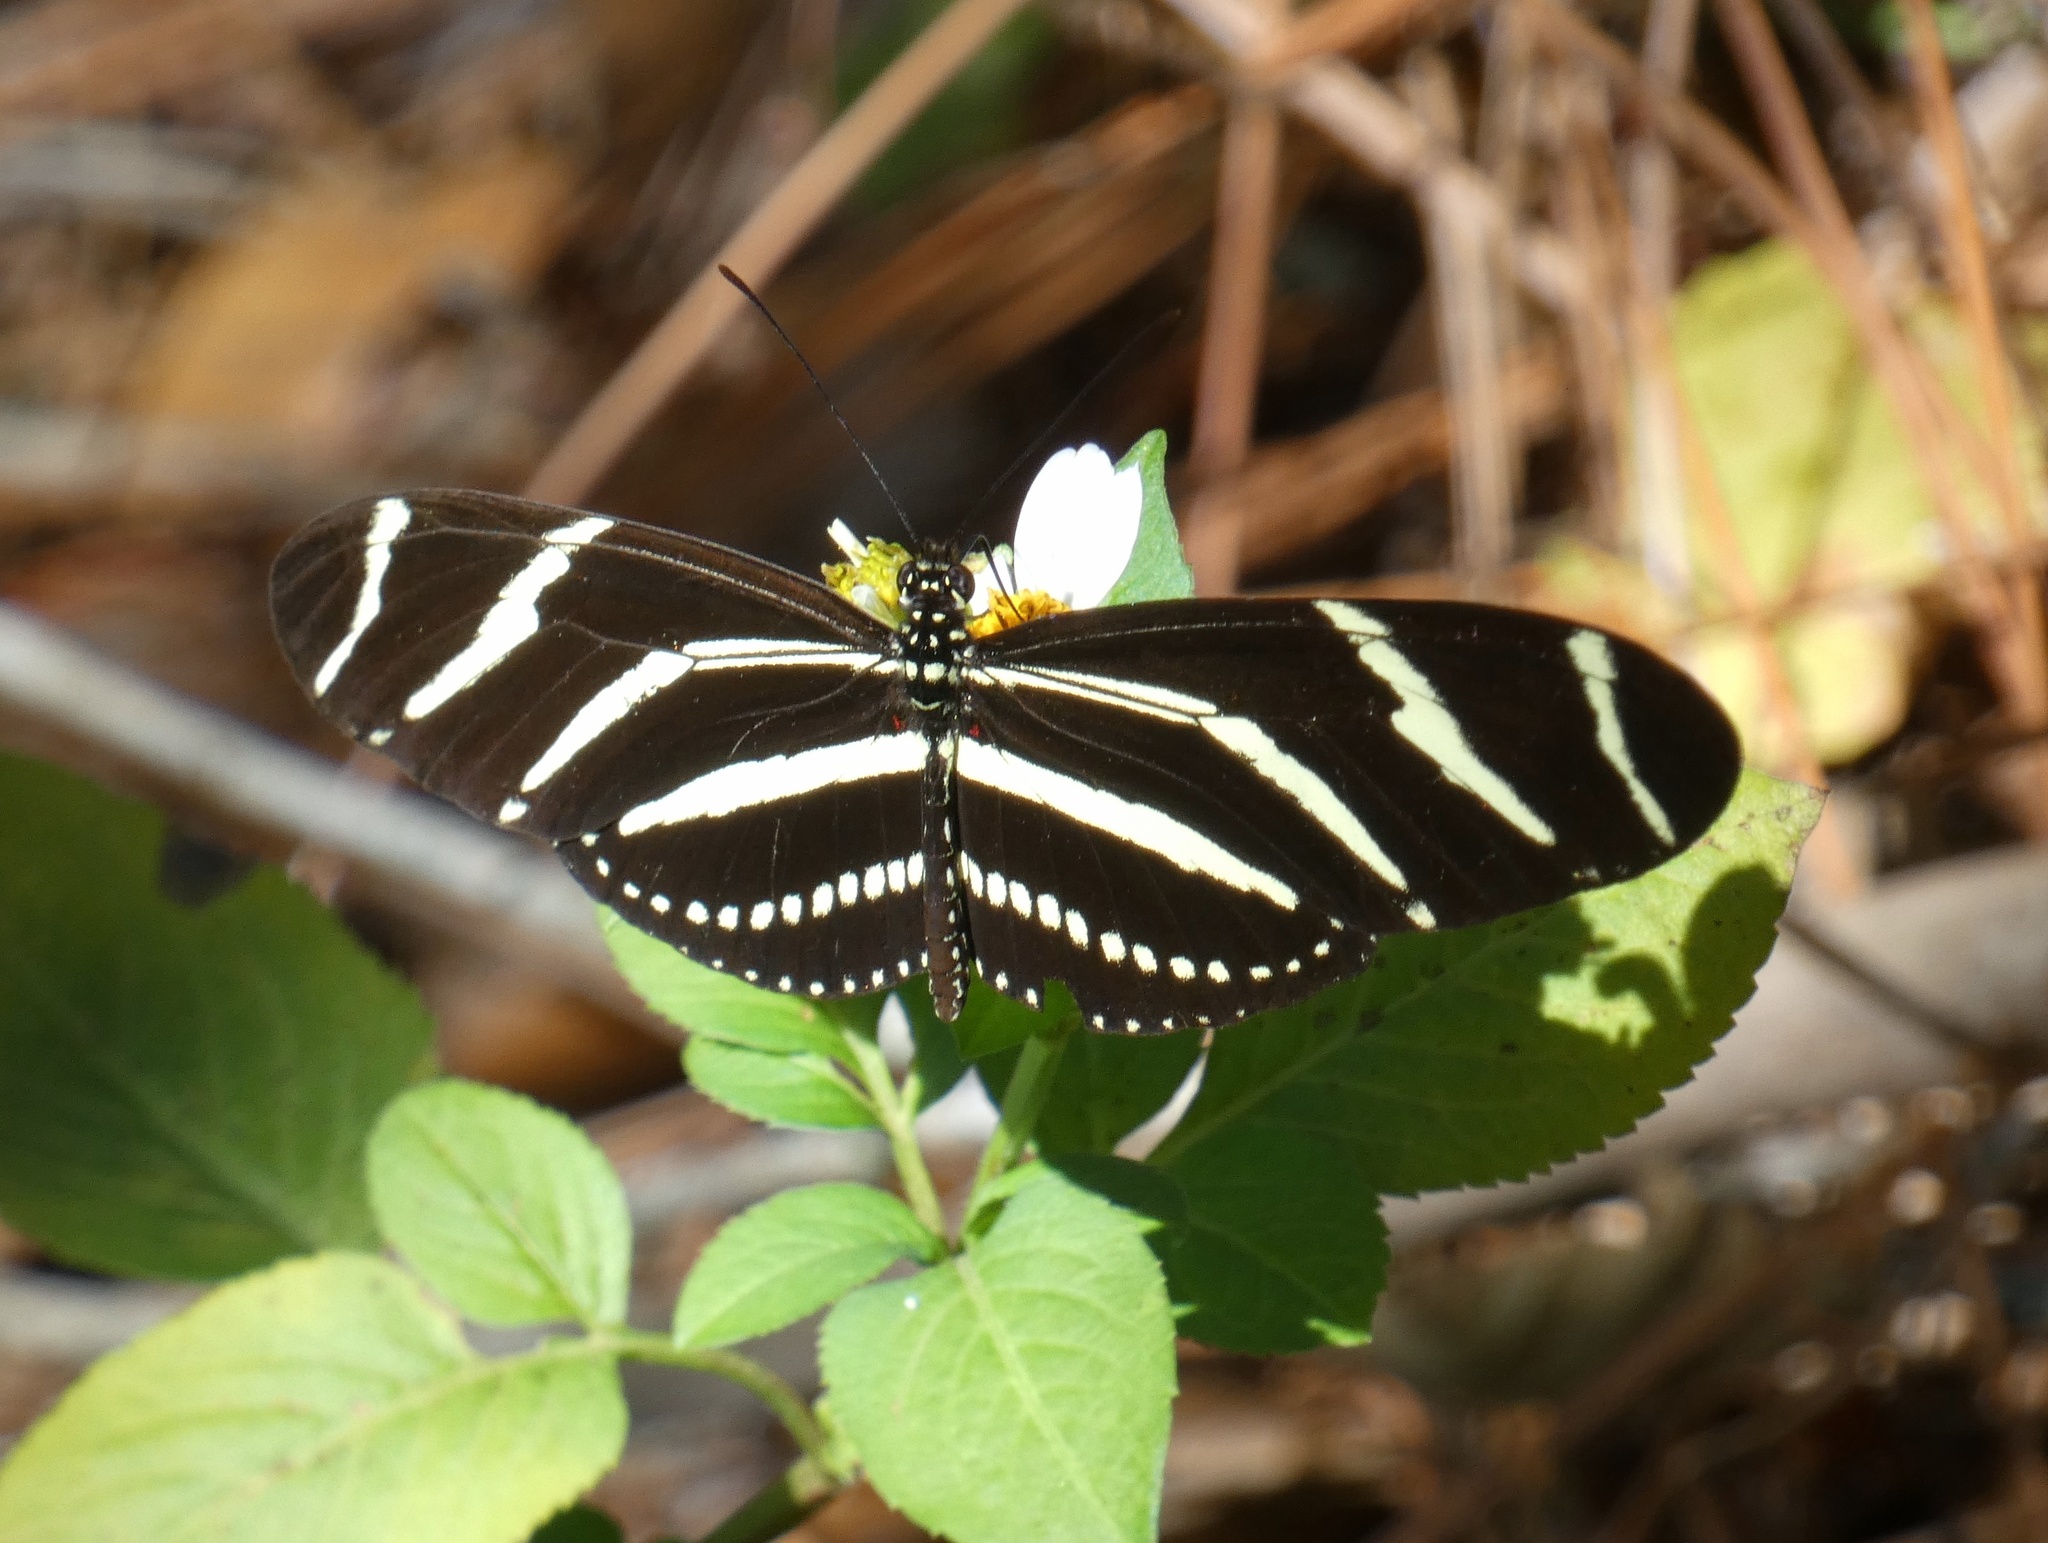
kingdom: Animalia
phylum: Arthropoda
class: Insecta
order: Lepidoptera
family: Nymphalidae
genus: Heliconius
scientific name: Heliconius charithonia
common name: Zebra long wing
